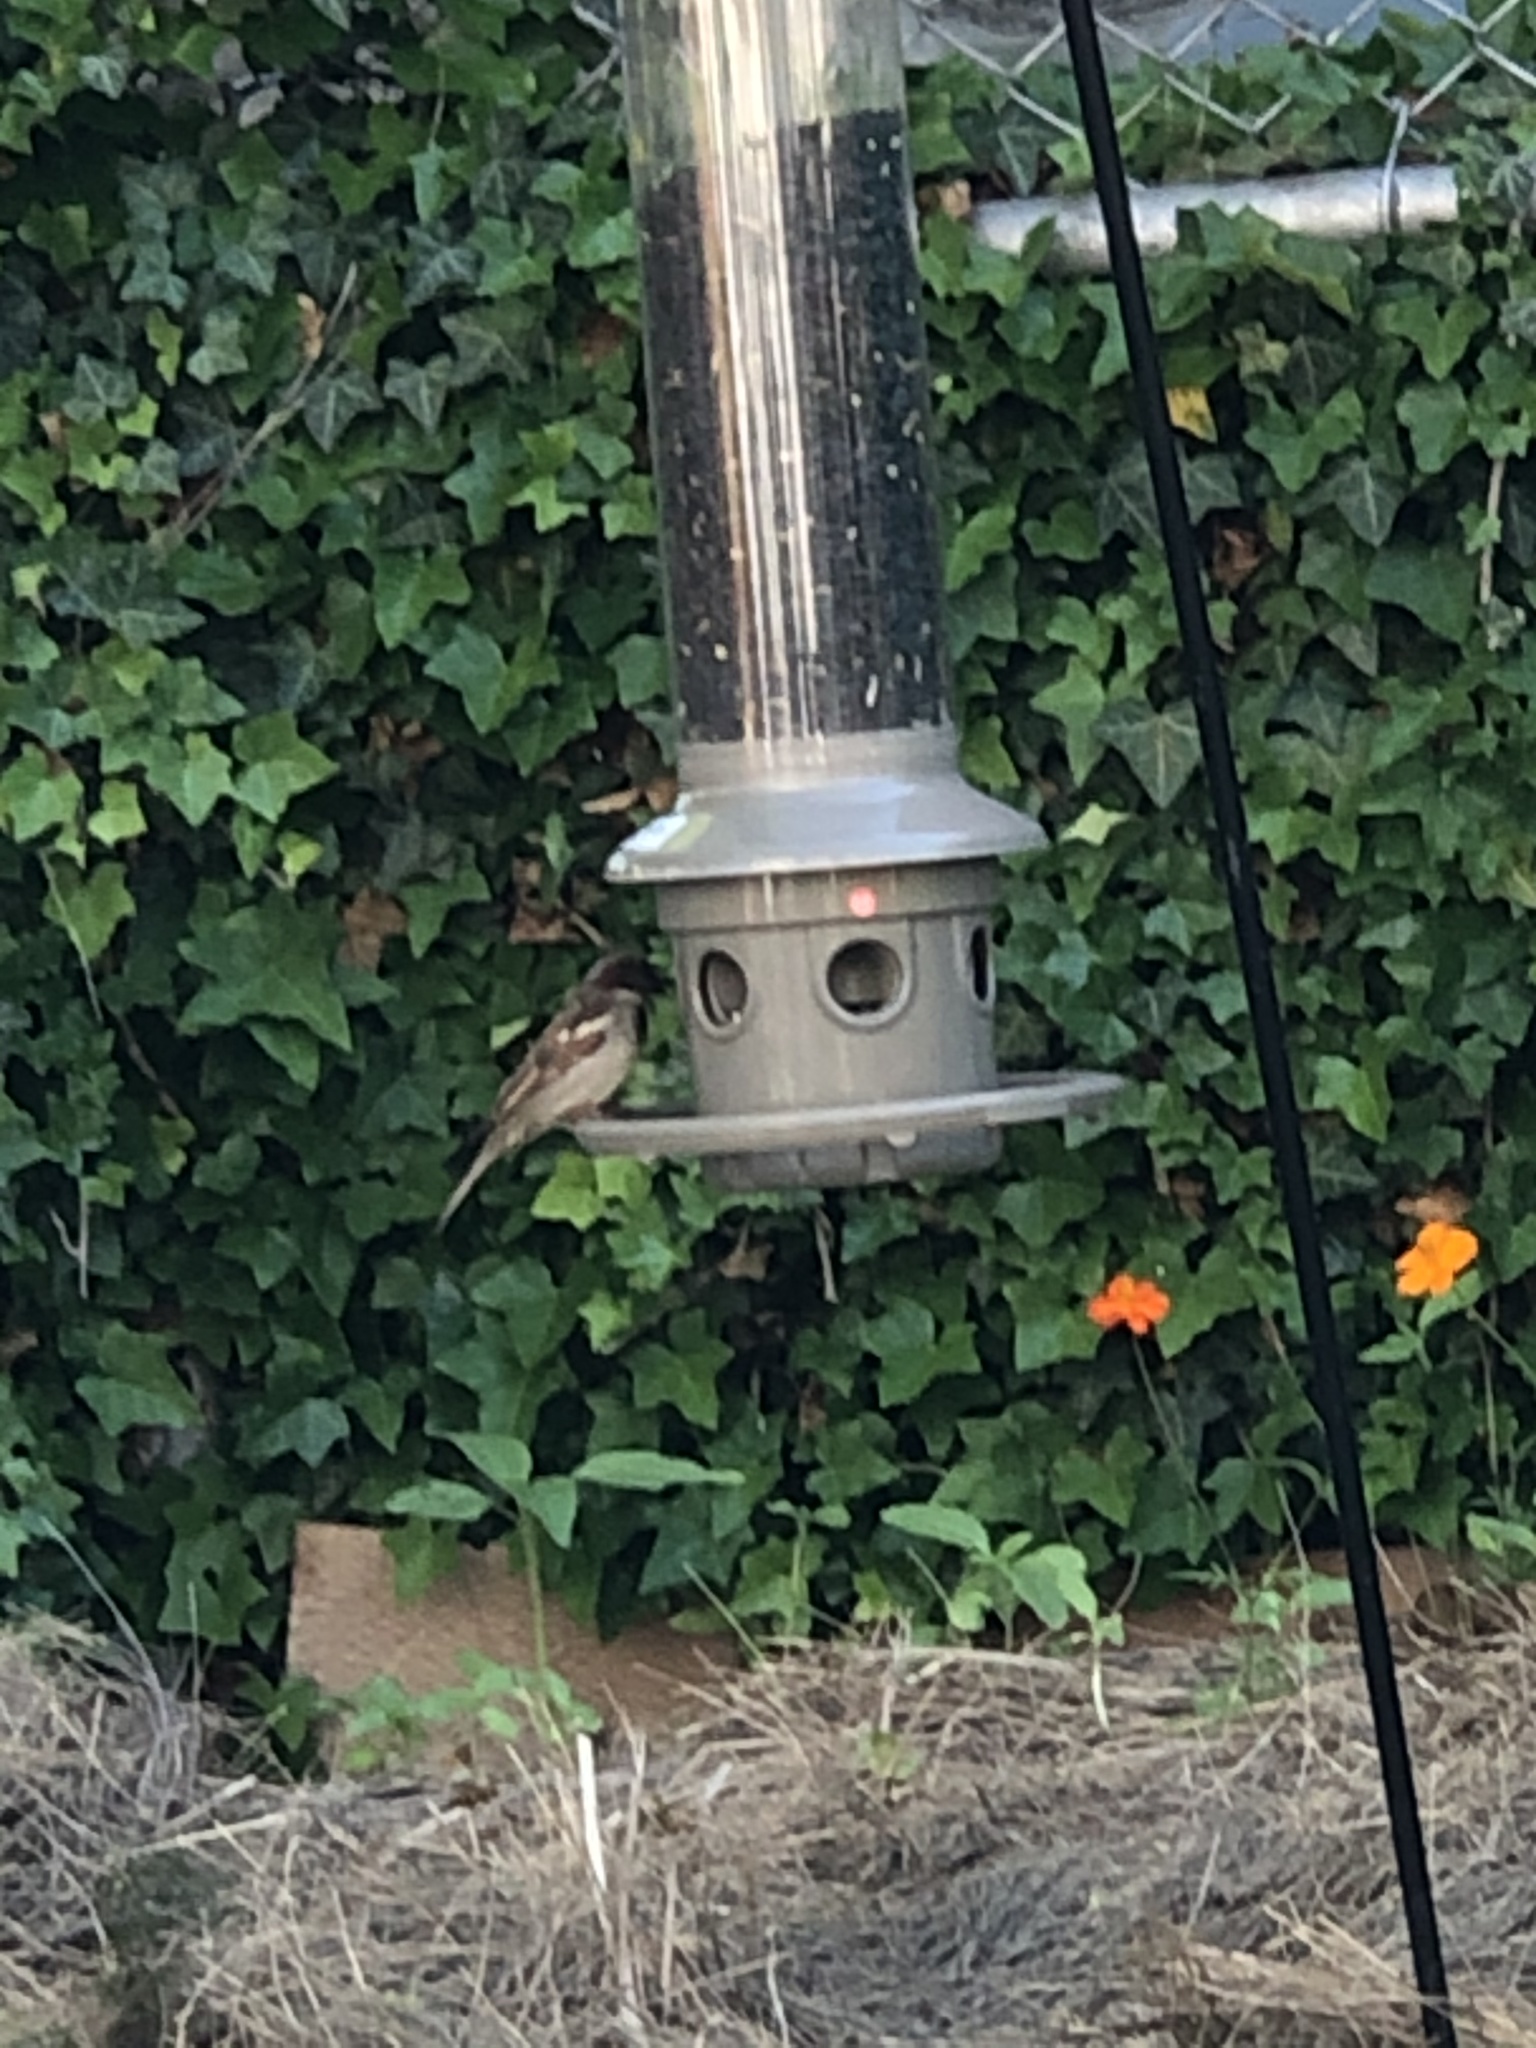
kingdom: Animalia
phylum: Chordata
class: Aves
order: Passeriformes
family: Passeridae
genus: Passer
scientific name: Passer domesticus
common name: House sparrow
